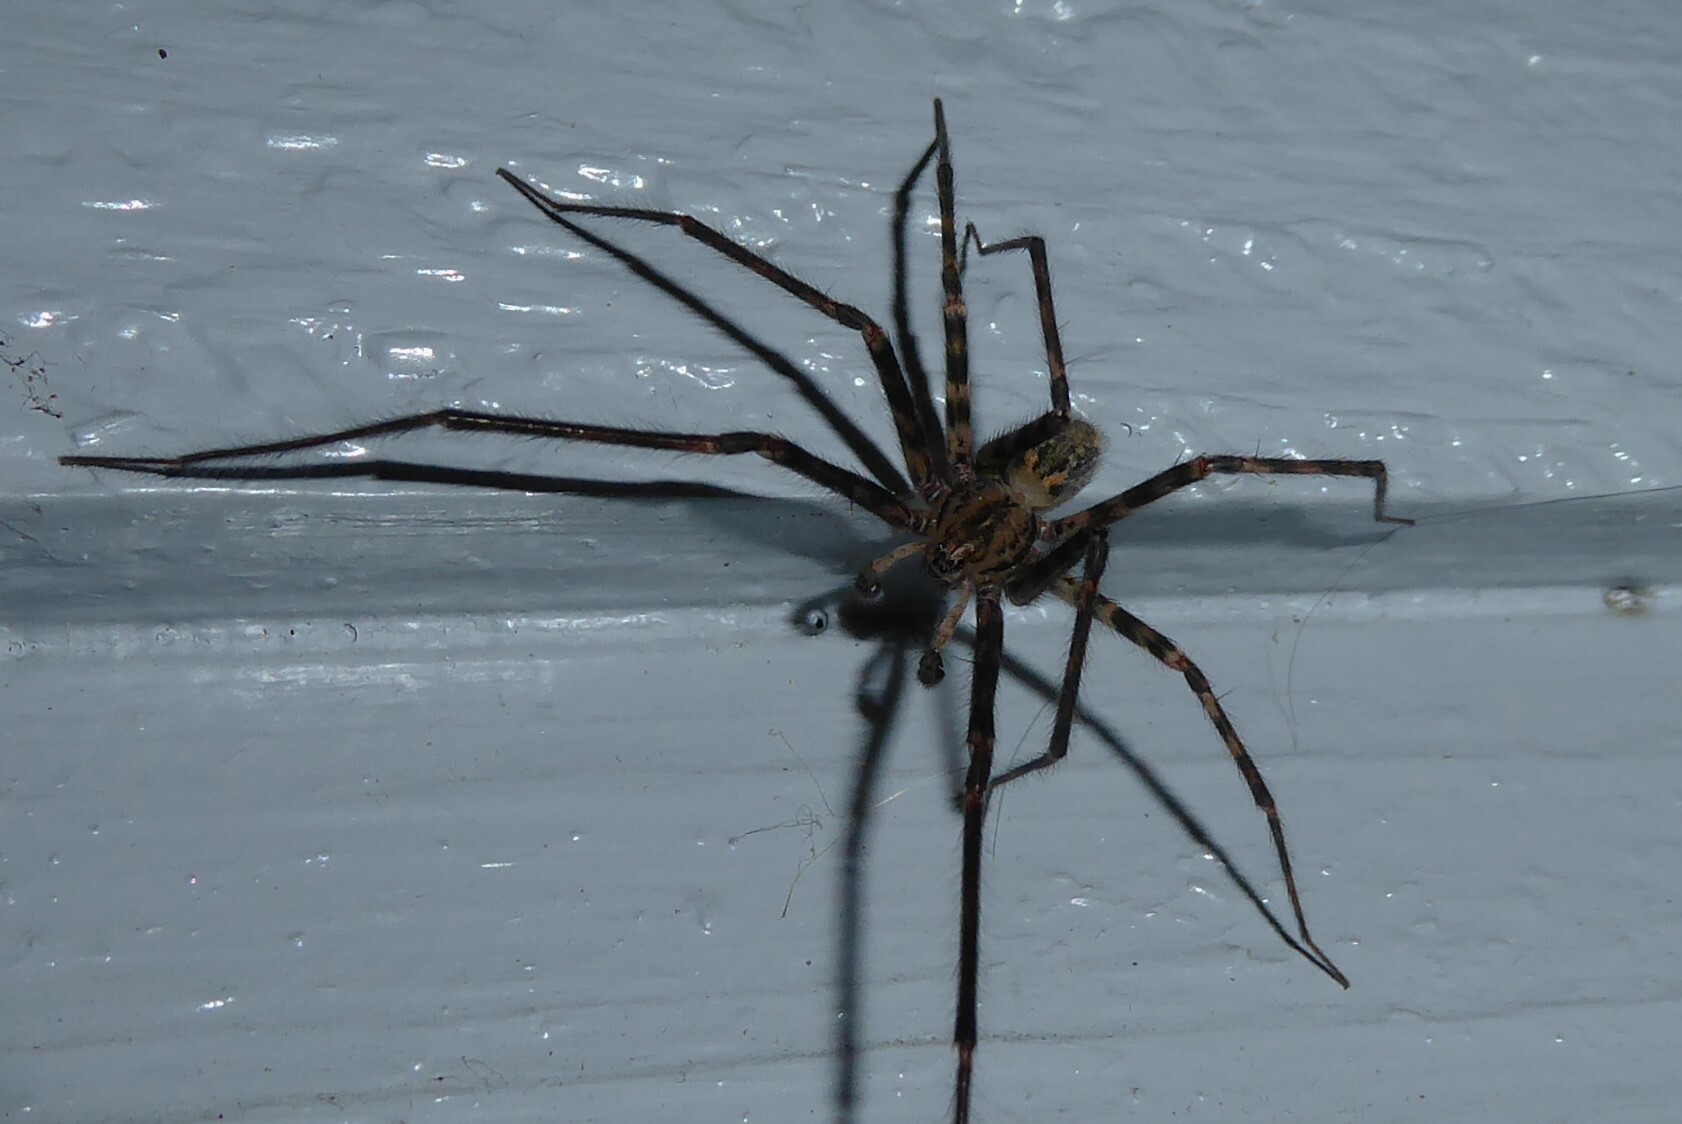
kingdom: Animalia
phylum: Arthropoda
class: Arachnida
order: Araneae
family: Stiphidiidae
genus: Stiphidion
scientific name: Stiphidion facetum
